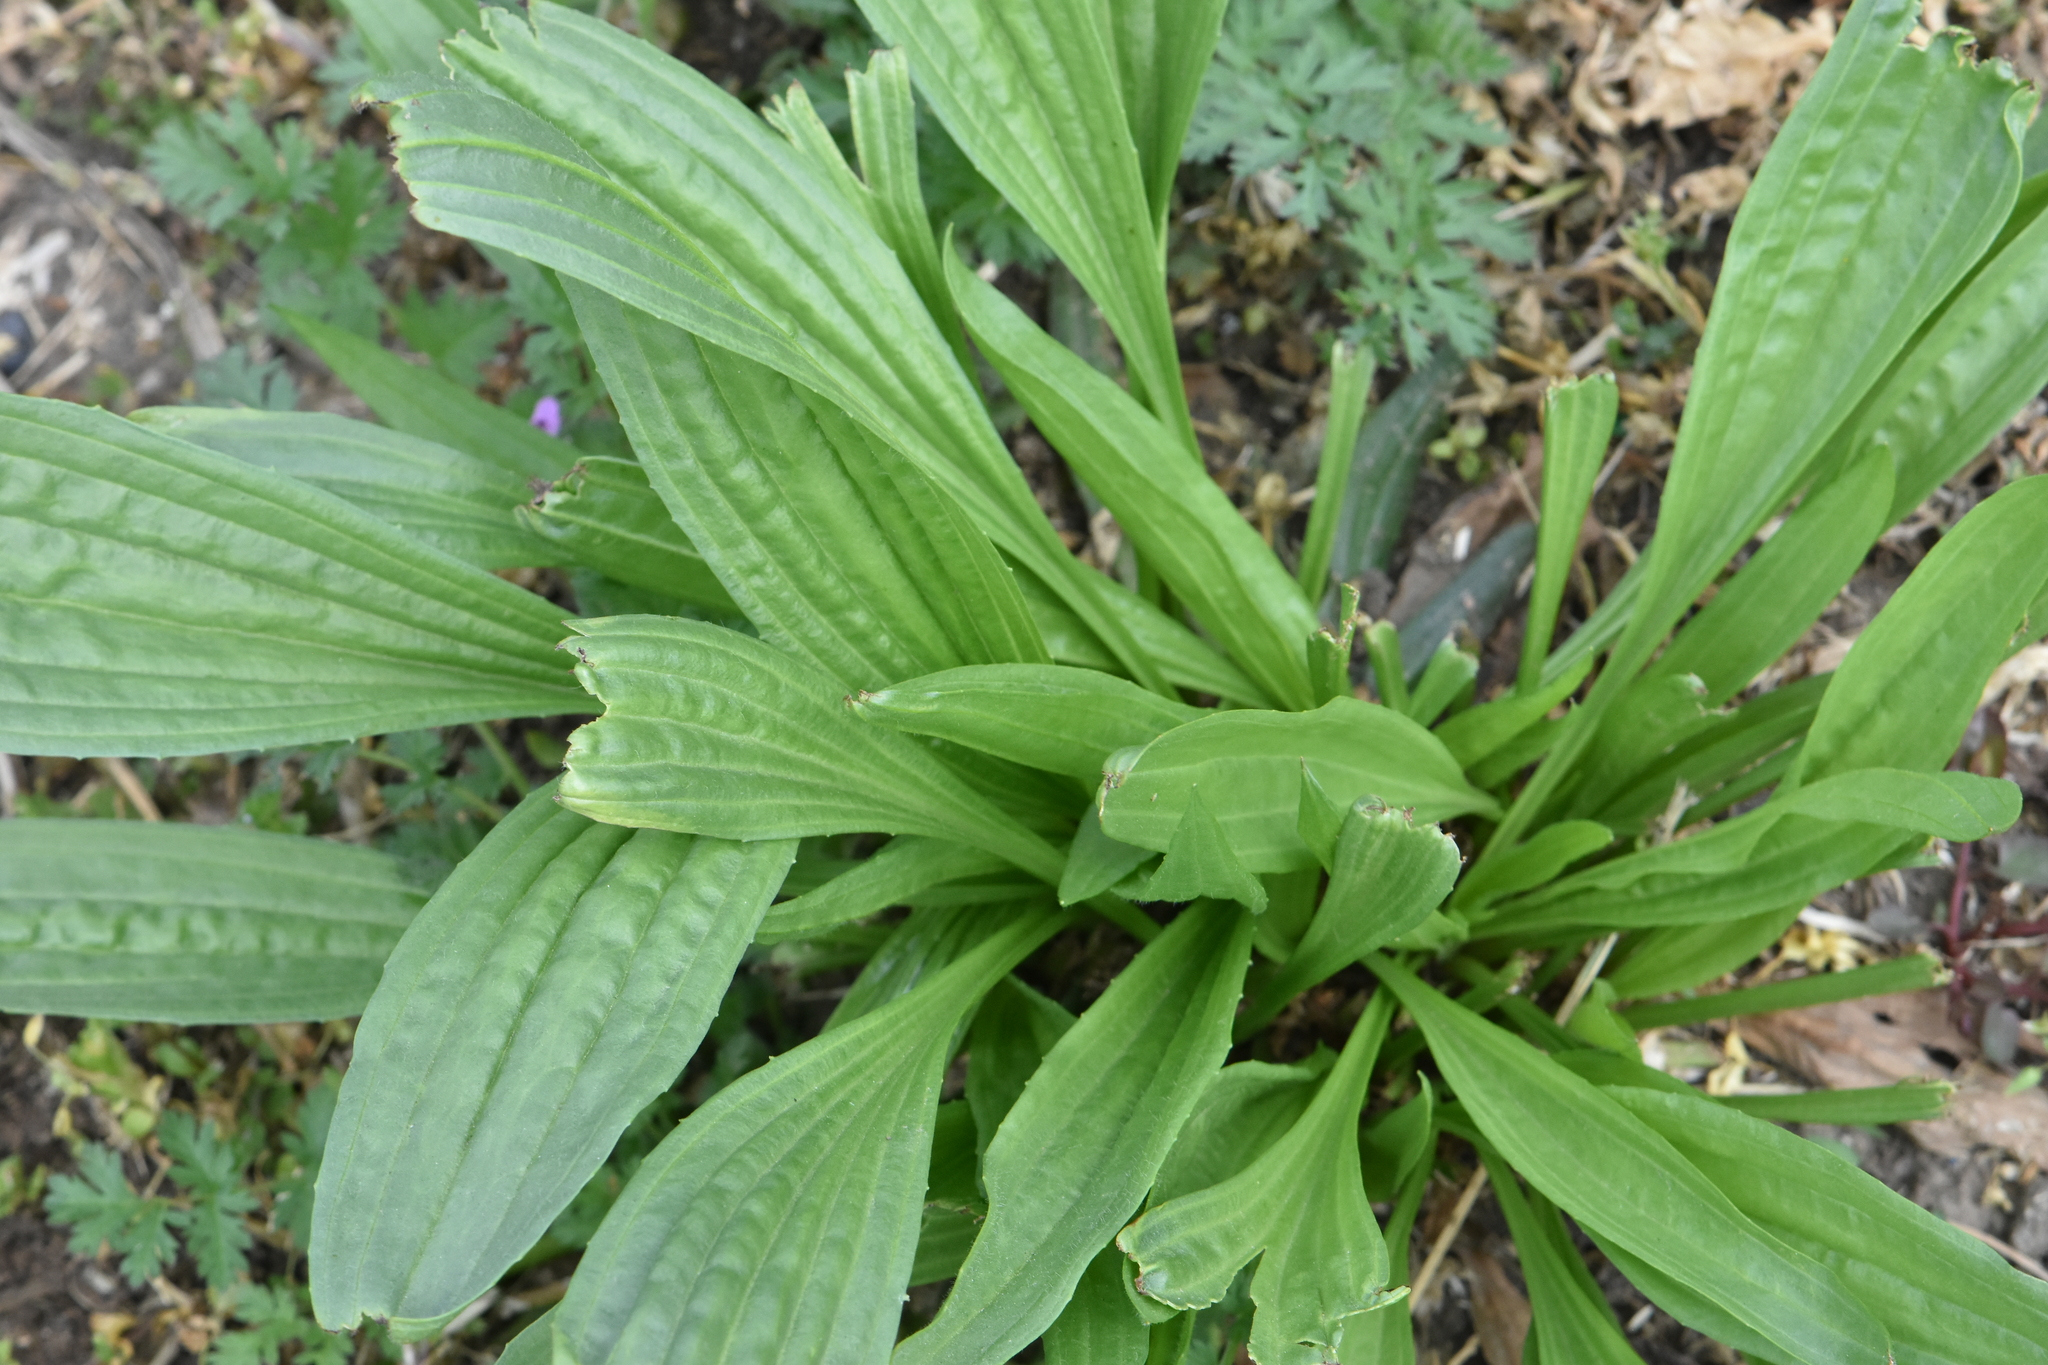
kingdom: Plantae
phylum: Tracheophyta
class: Magnoliopsida
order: Lamiales
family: Plantaginaceae
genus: Plantago
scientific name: Plantago lanceolata
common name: Ribwort plantain
